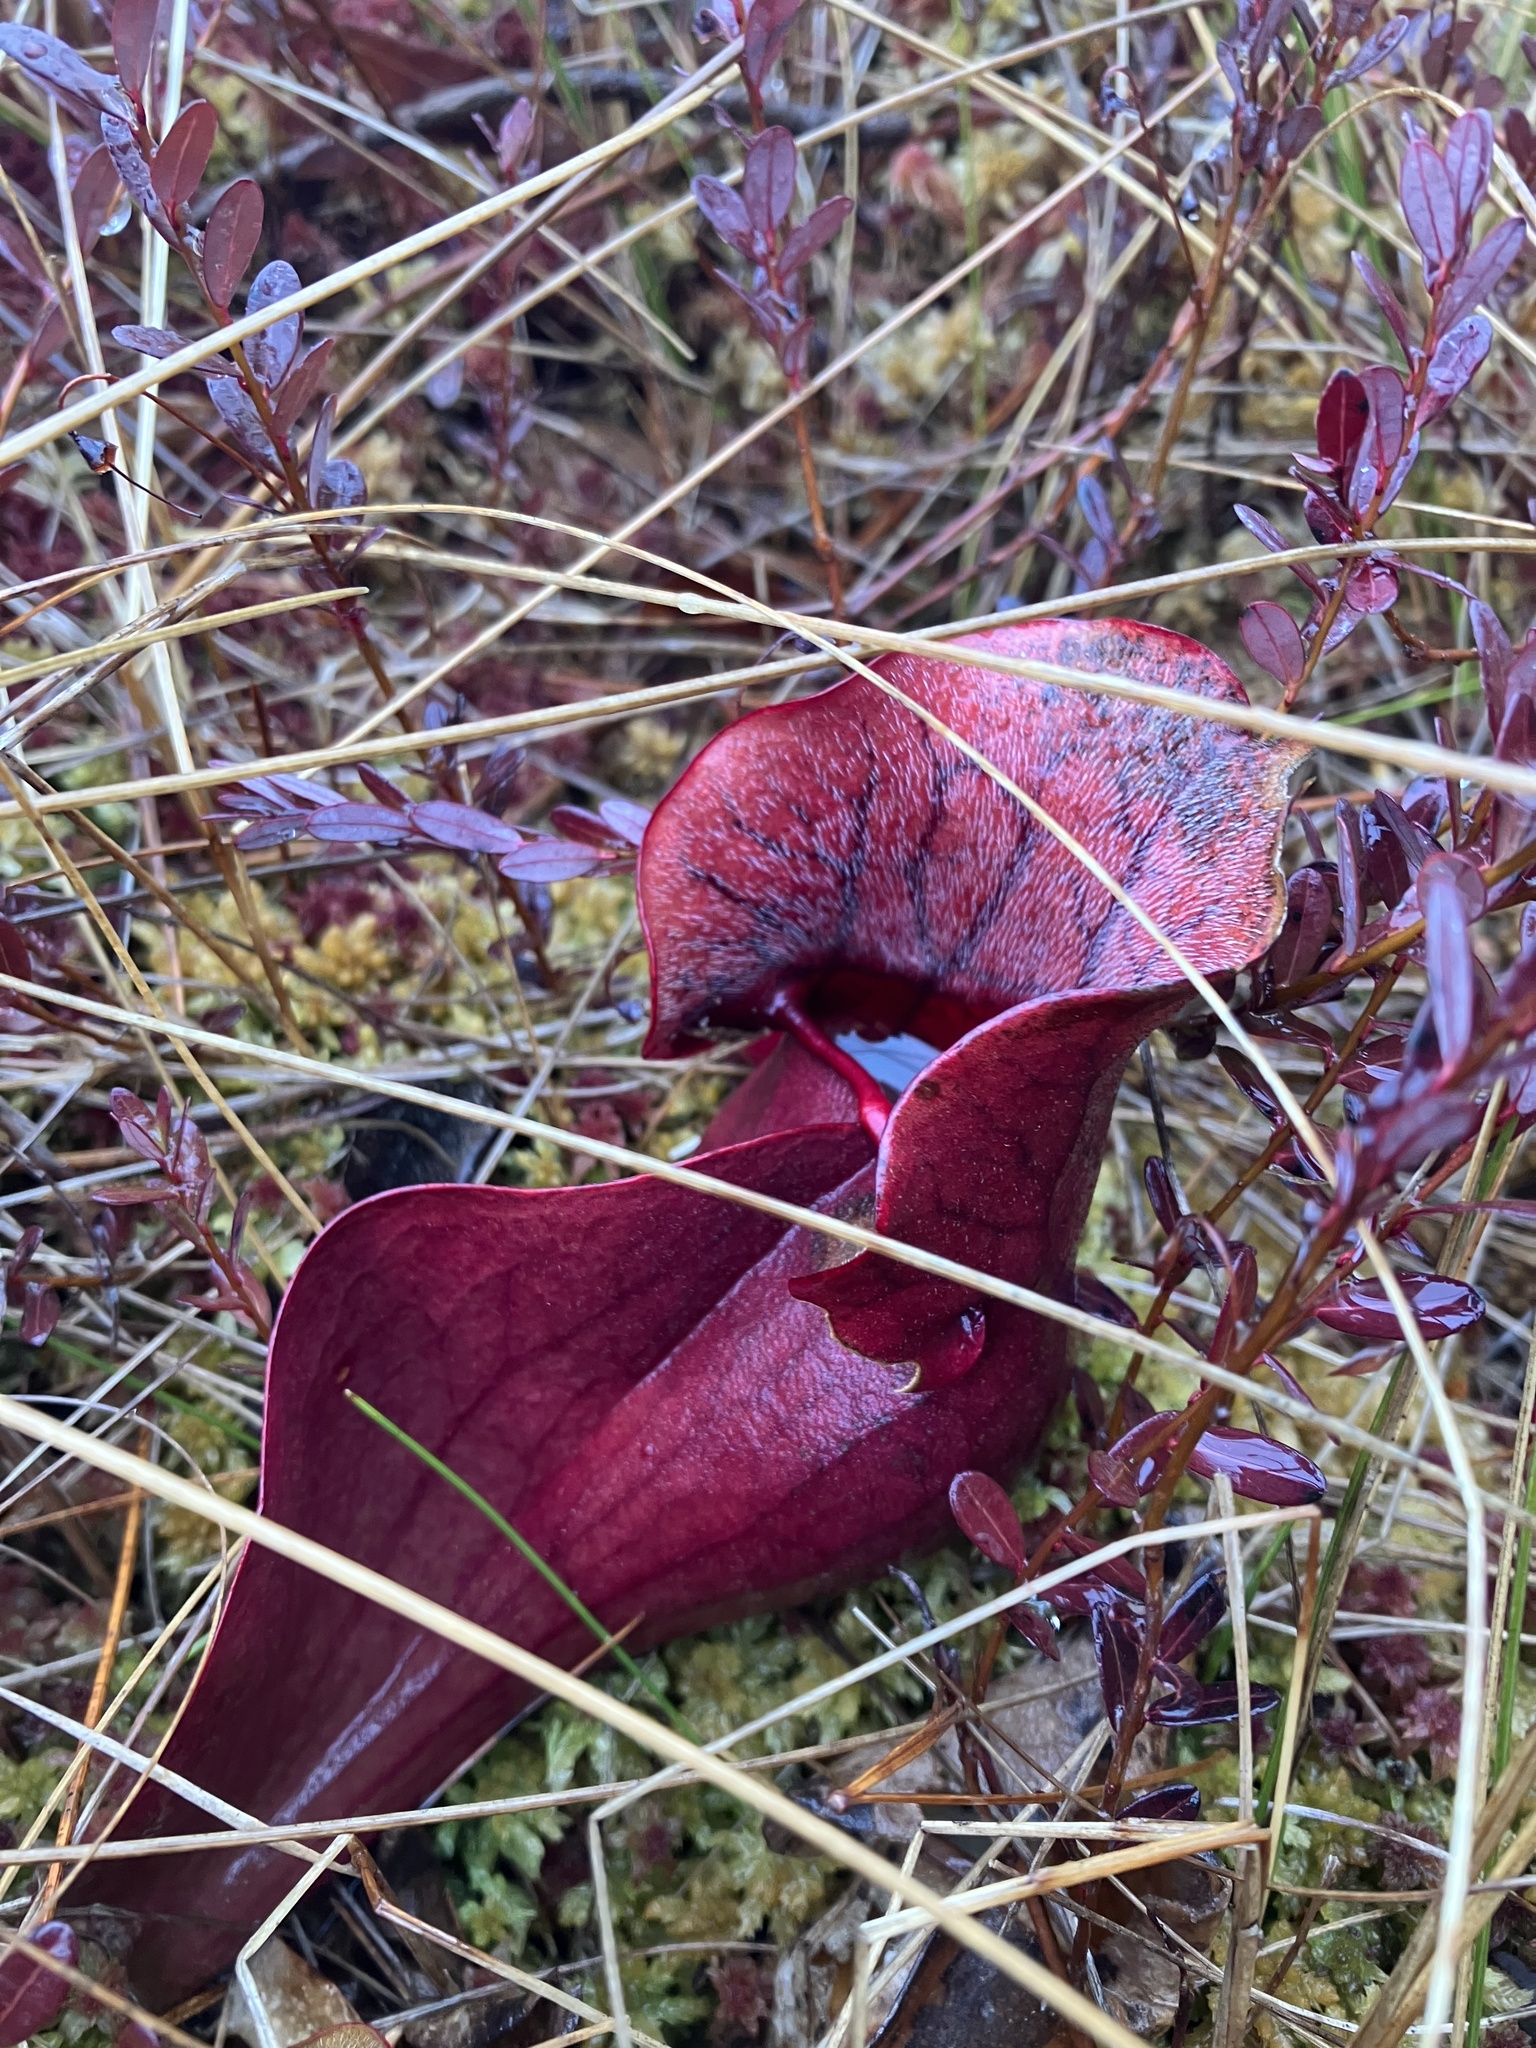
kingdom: Plantae
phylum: Tracheophyta
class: Magnoliopsida
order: Ericales
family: Sarraceniaceae
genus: Sarracenia
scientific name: Sarracenia purpurea
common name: Pitcherplant
